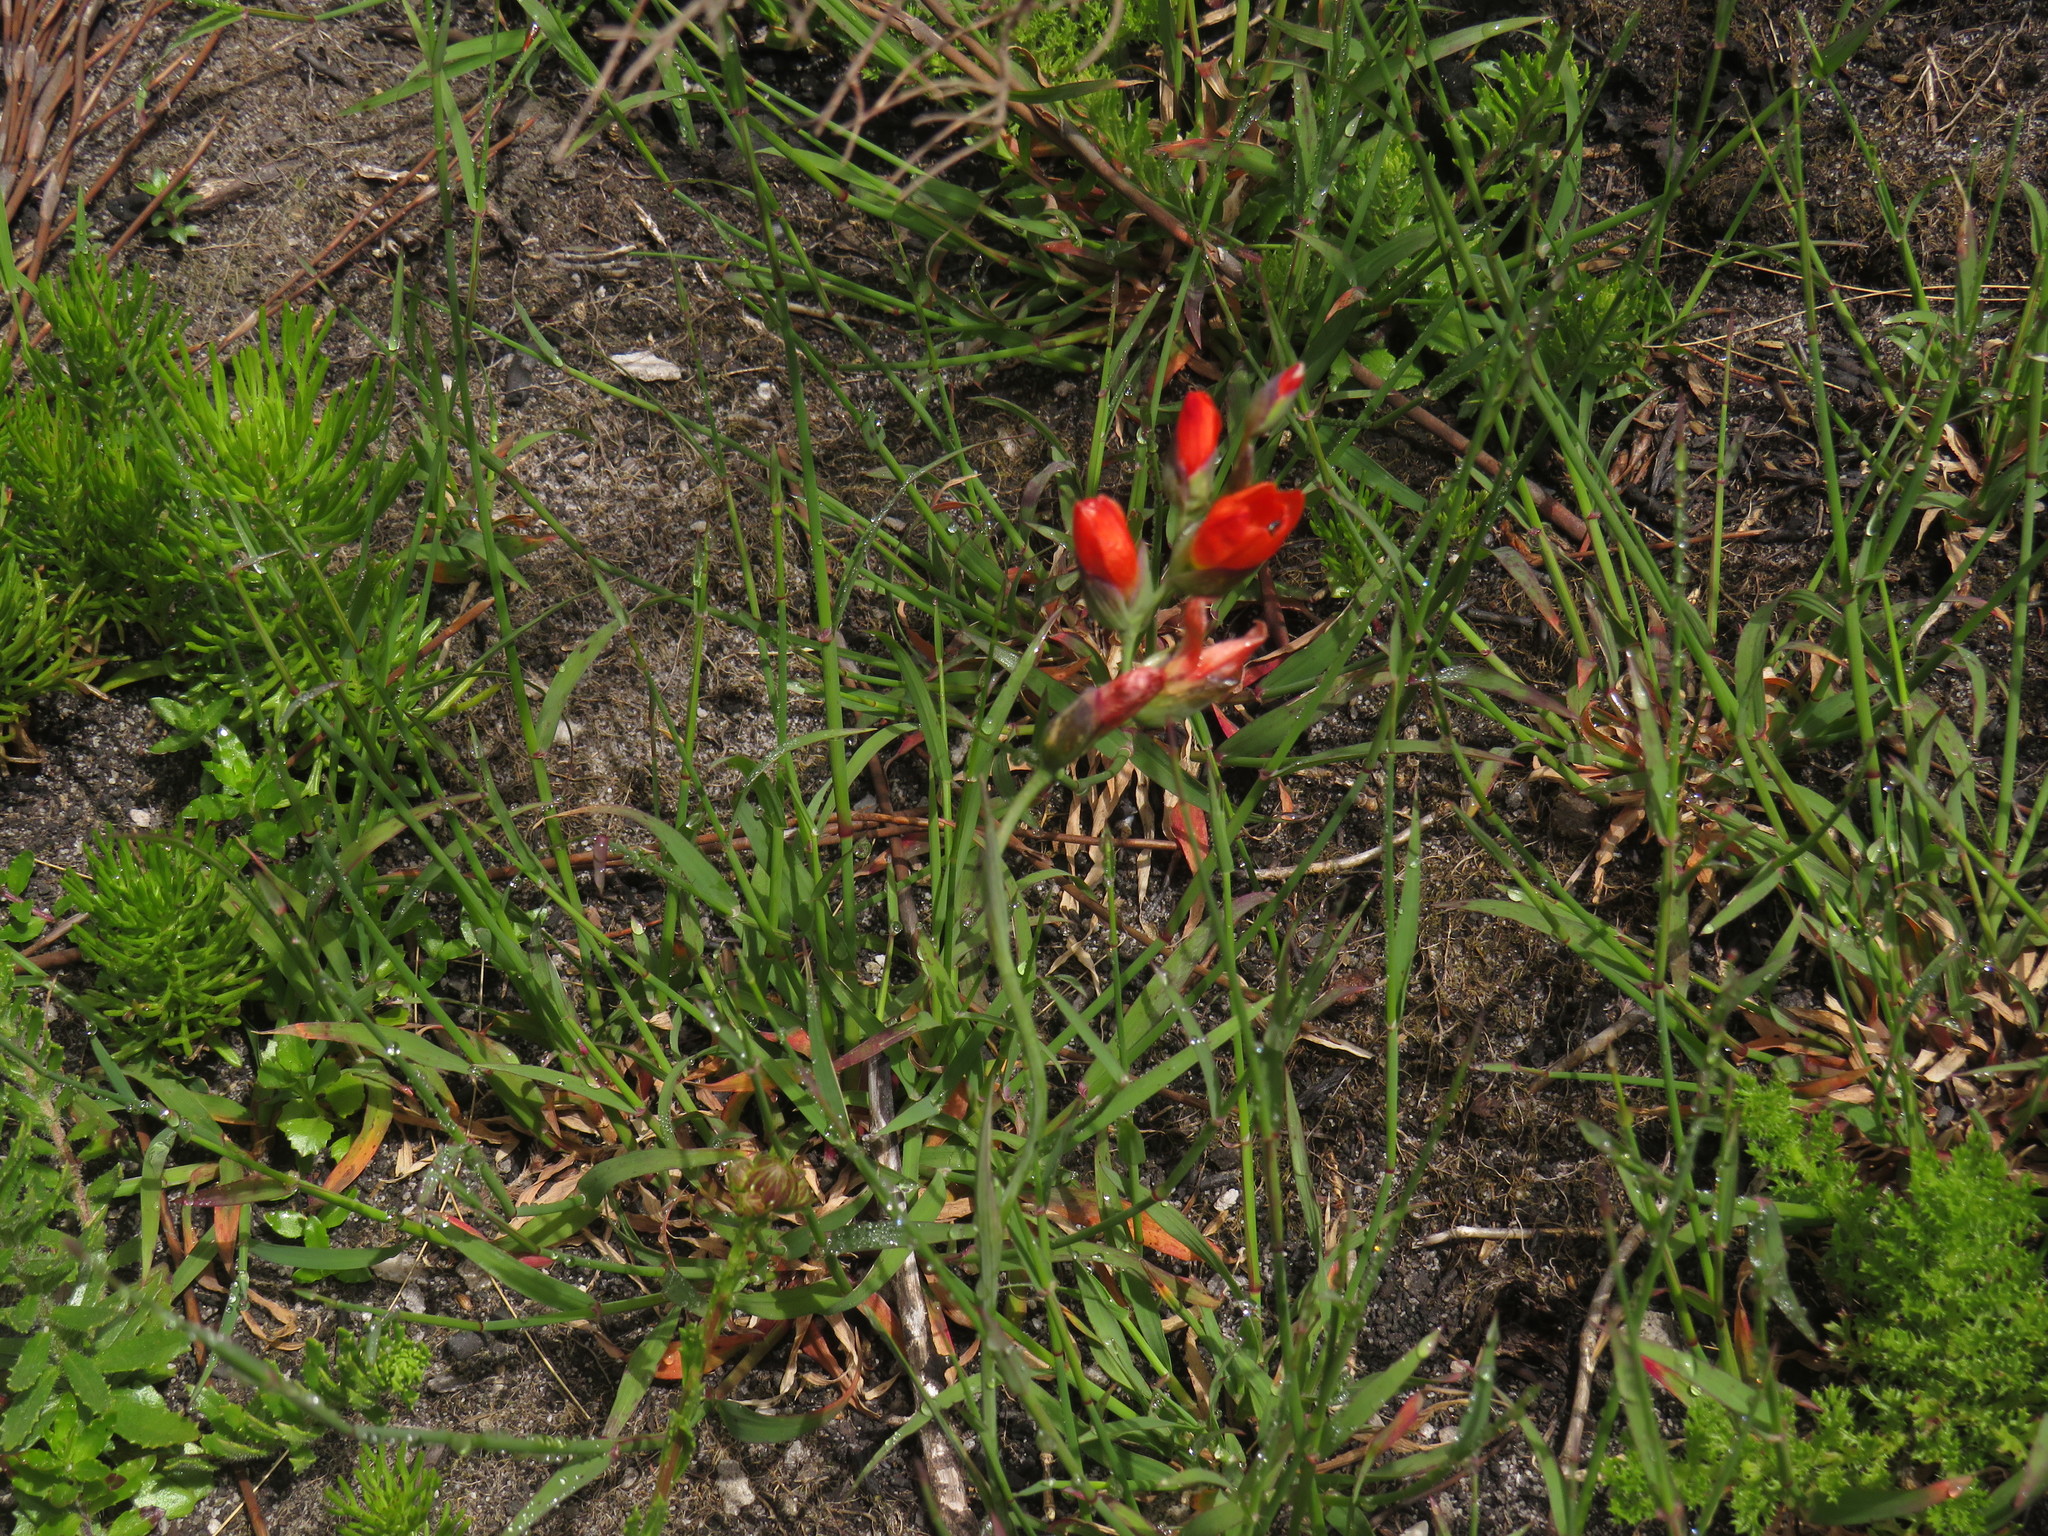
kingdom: Plantae
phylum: Tracheophyta
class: Liliopsida
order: Asparagales
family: Iridaceae
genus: Gladiolus
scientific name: Gladiolus brevitubus
